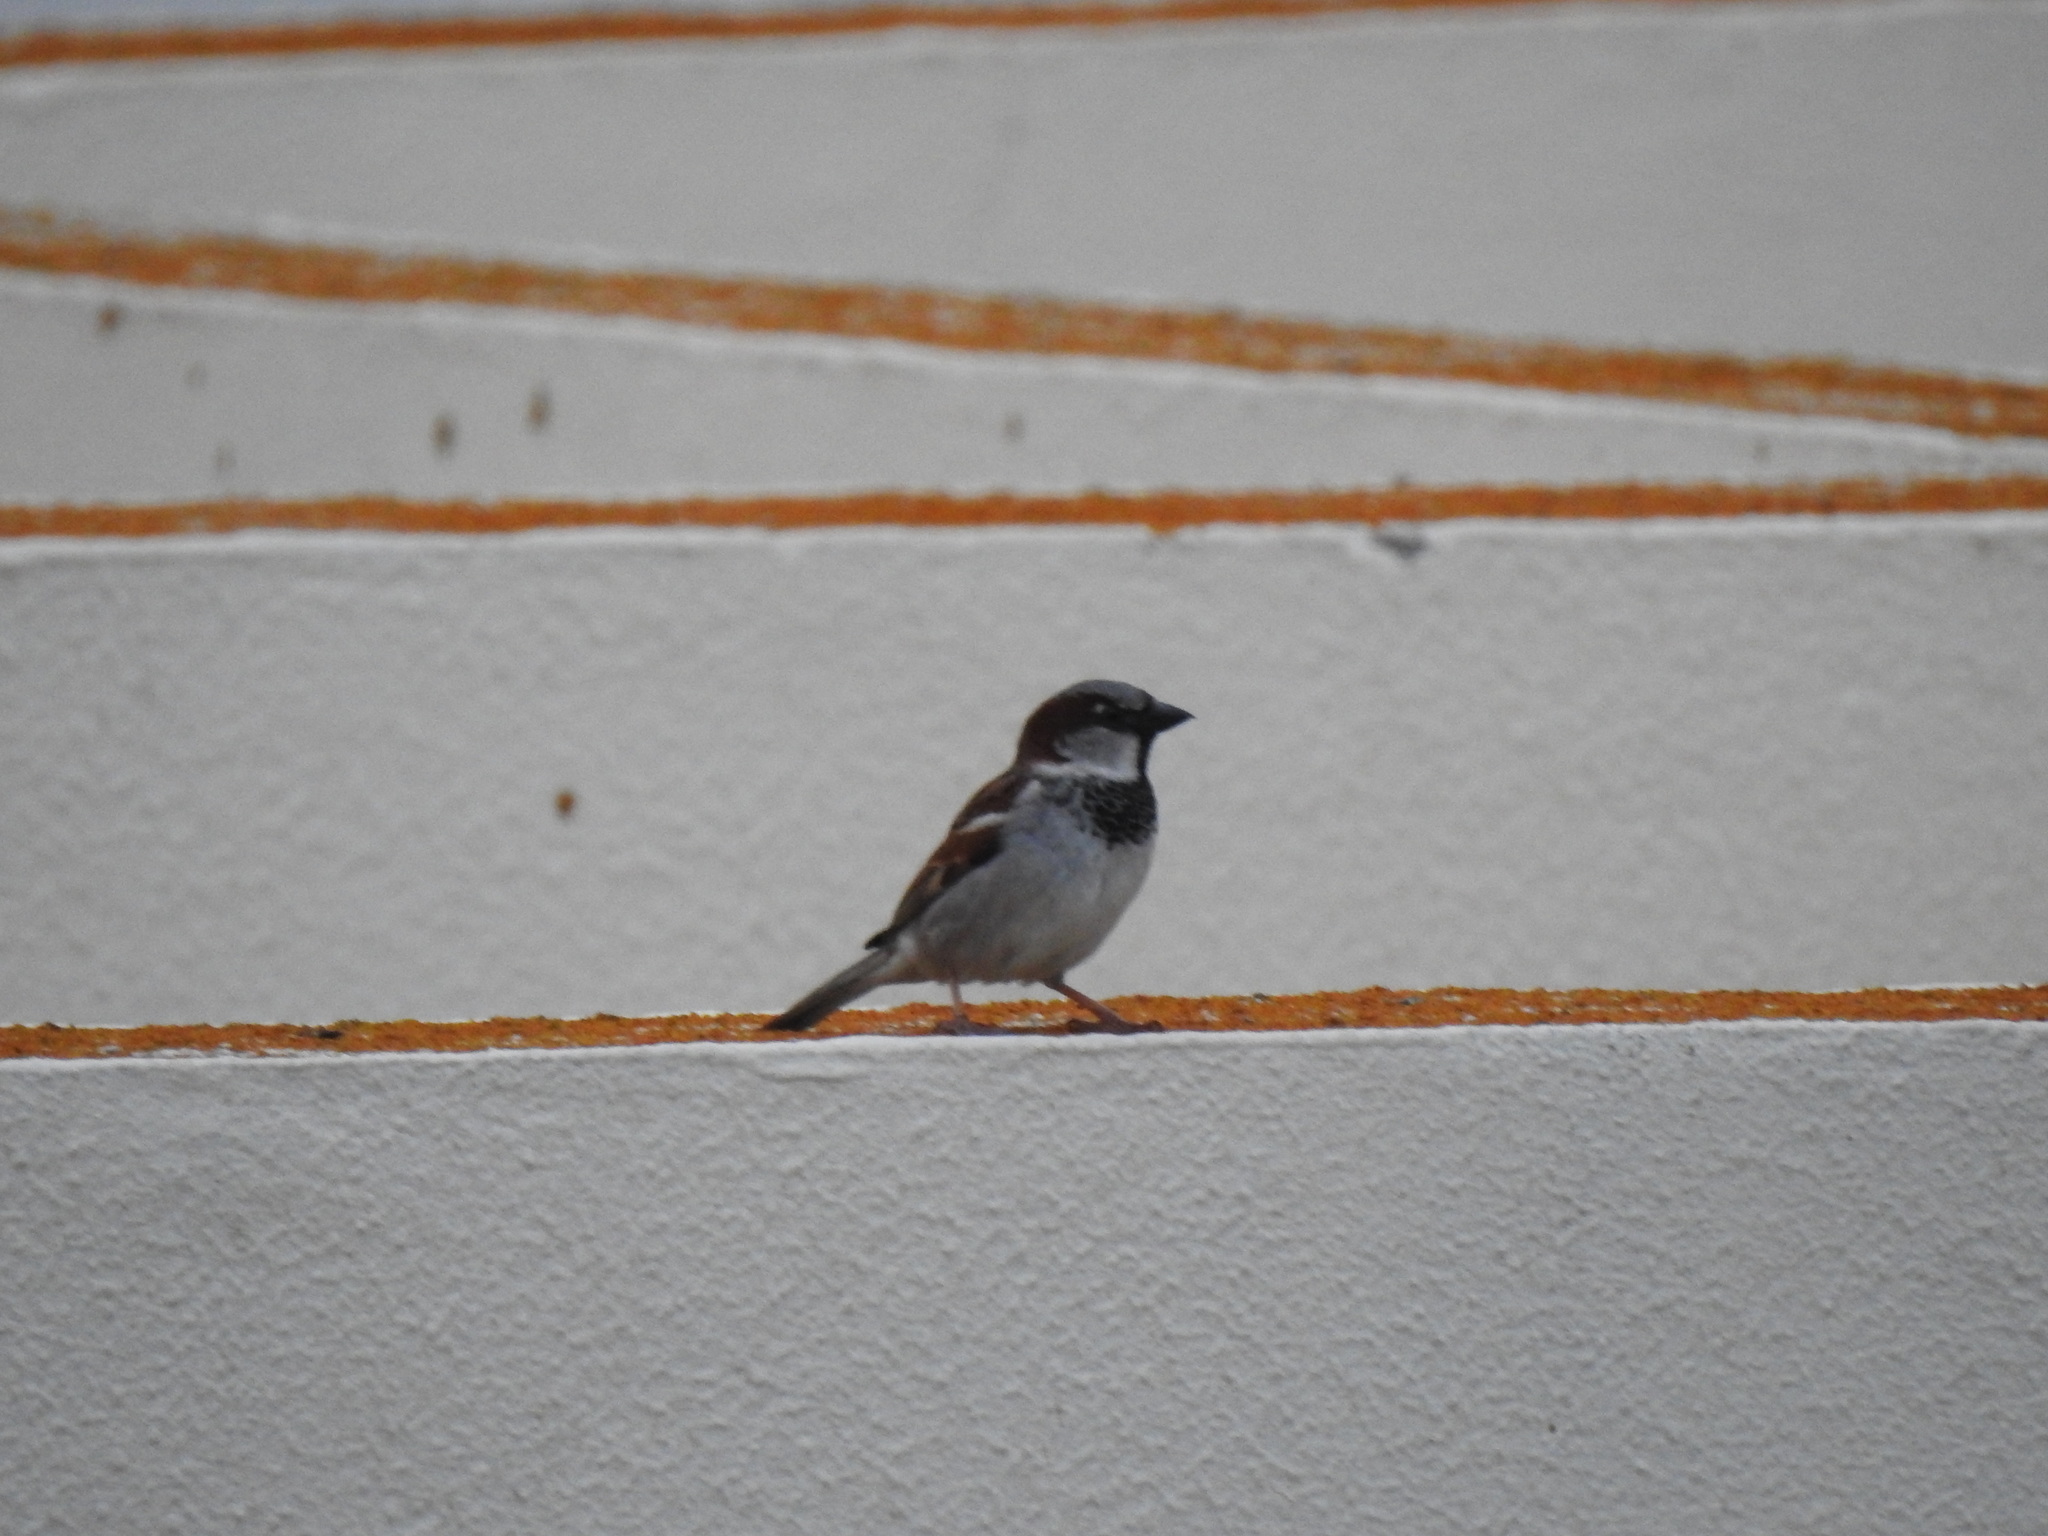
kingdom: Animalia
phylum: Chordata
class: Aves
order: Passeriformes
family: Passeridae
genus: Passer
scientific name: Passer domesticus
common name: House sparrow
